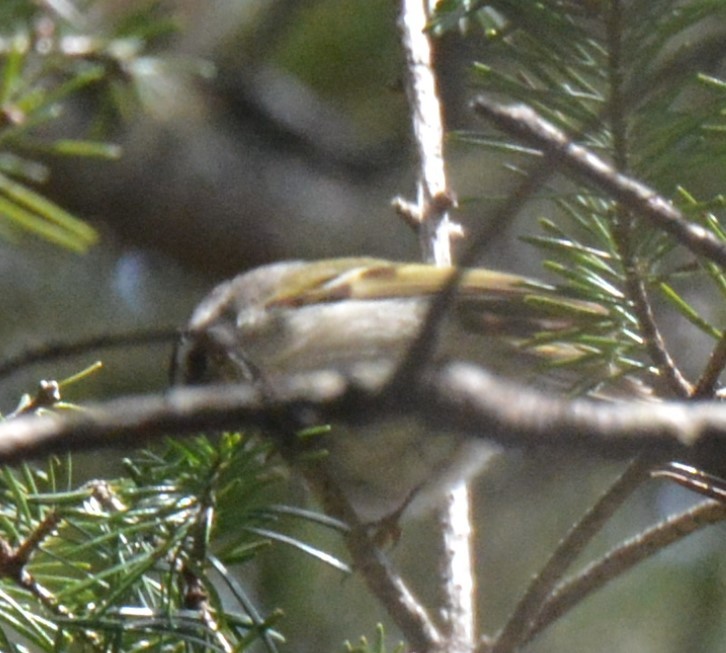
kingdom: Animalia
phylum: Chordata
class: Aves
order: Passeriformes
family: Regulidae
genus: Regulus
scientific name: Regulus satrapa
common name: Golden-crowned kinglet
